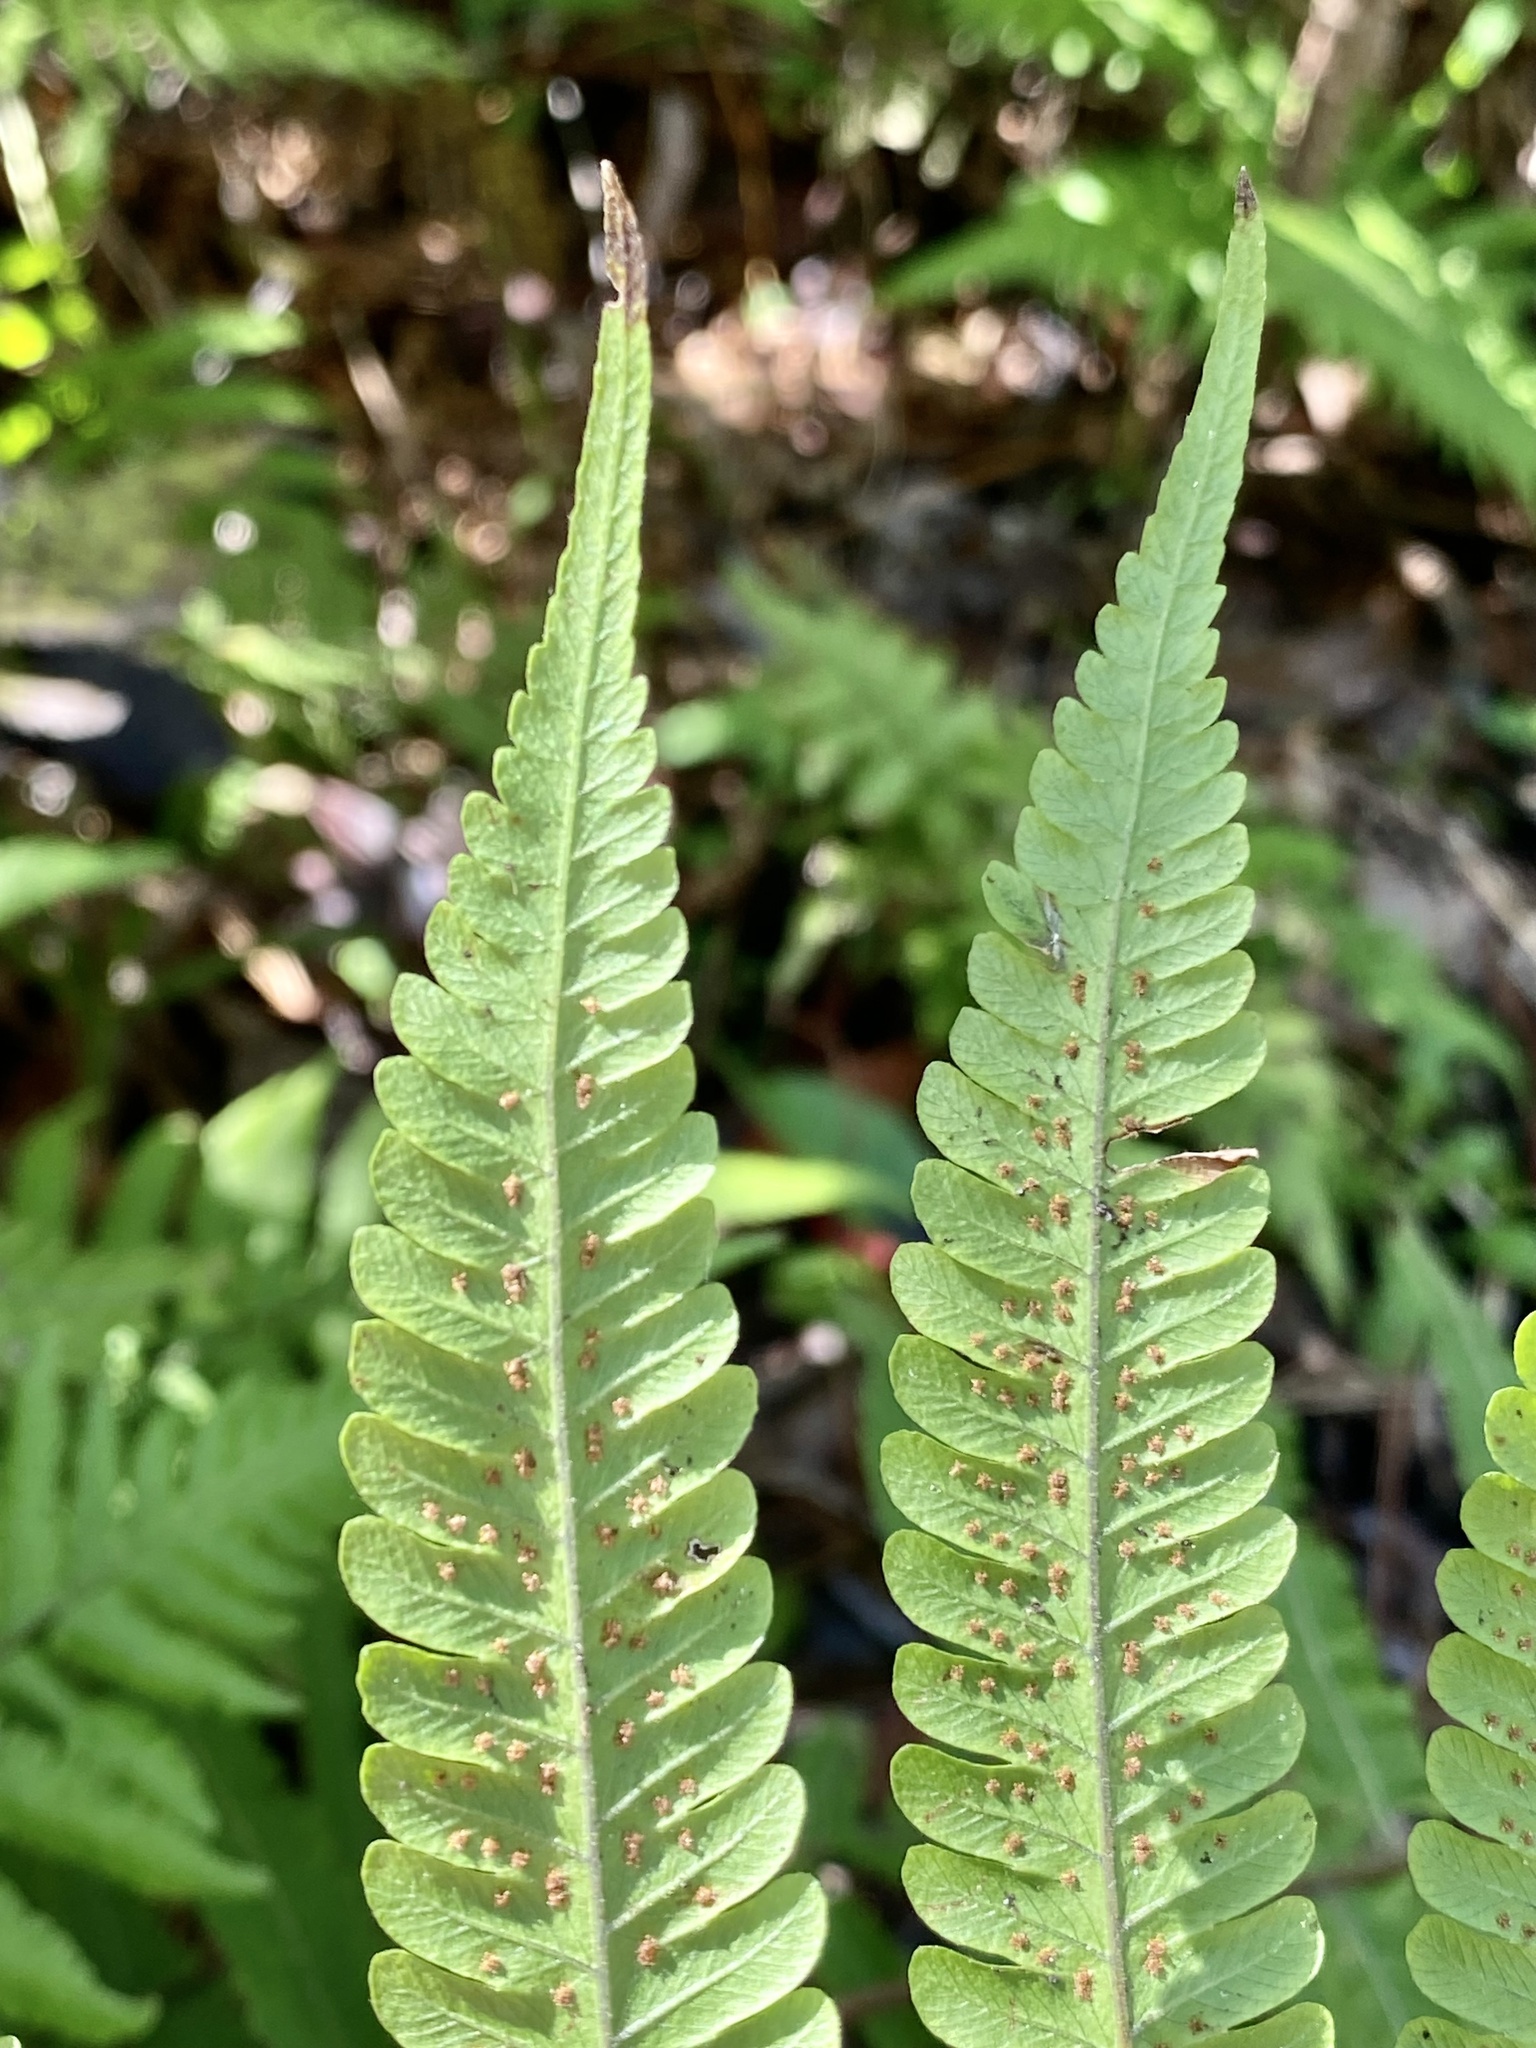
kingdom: Plantae
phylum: Tracheophyta
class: Polypodiopsida
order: Polypodiales
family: Thelypteridaceae
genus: Christella
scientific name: Christella dentata
